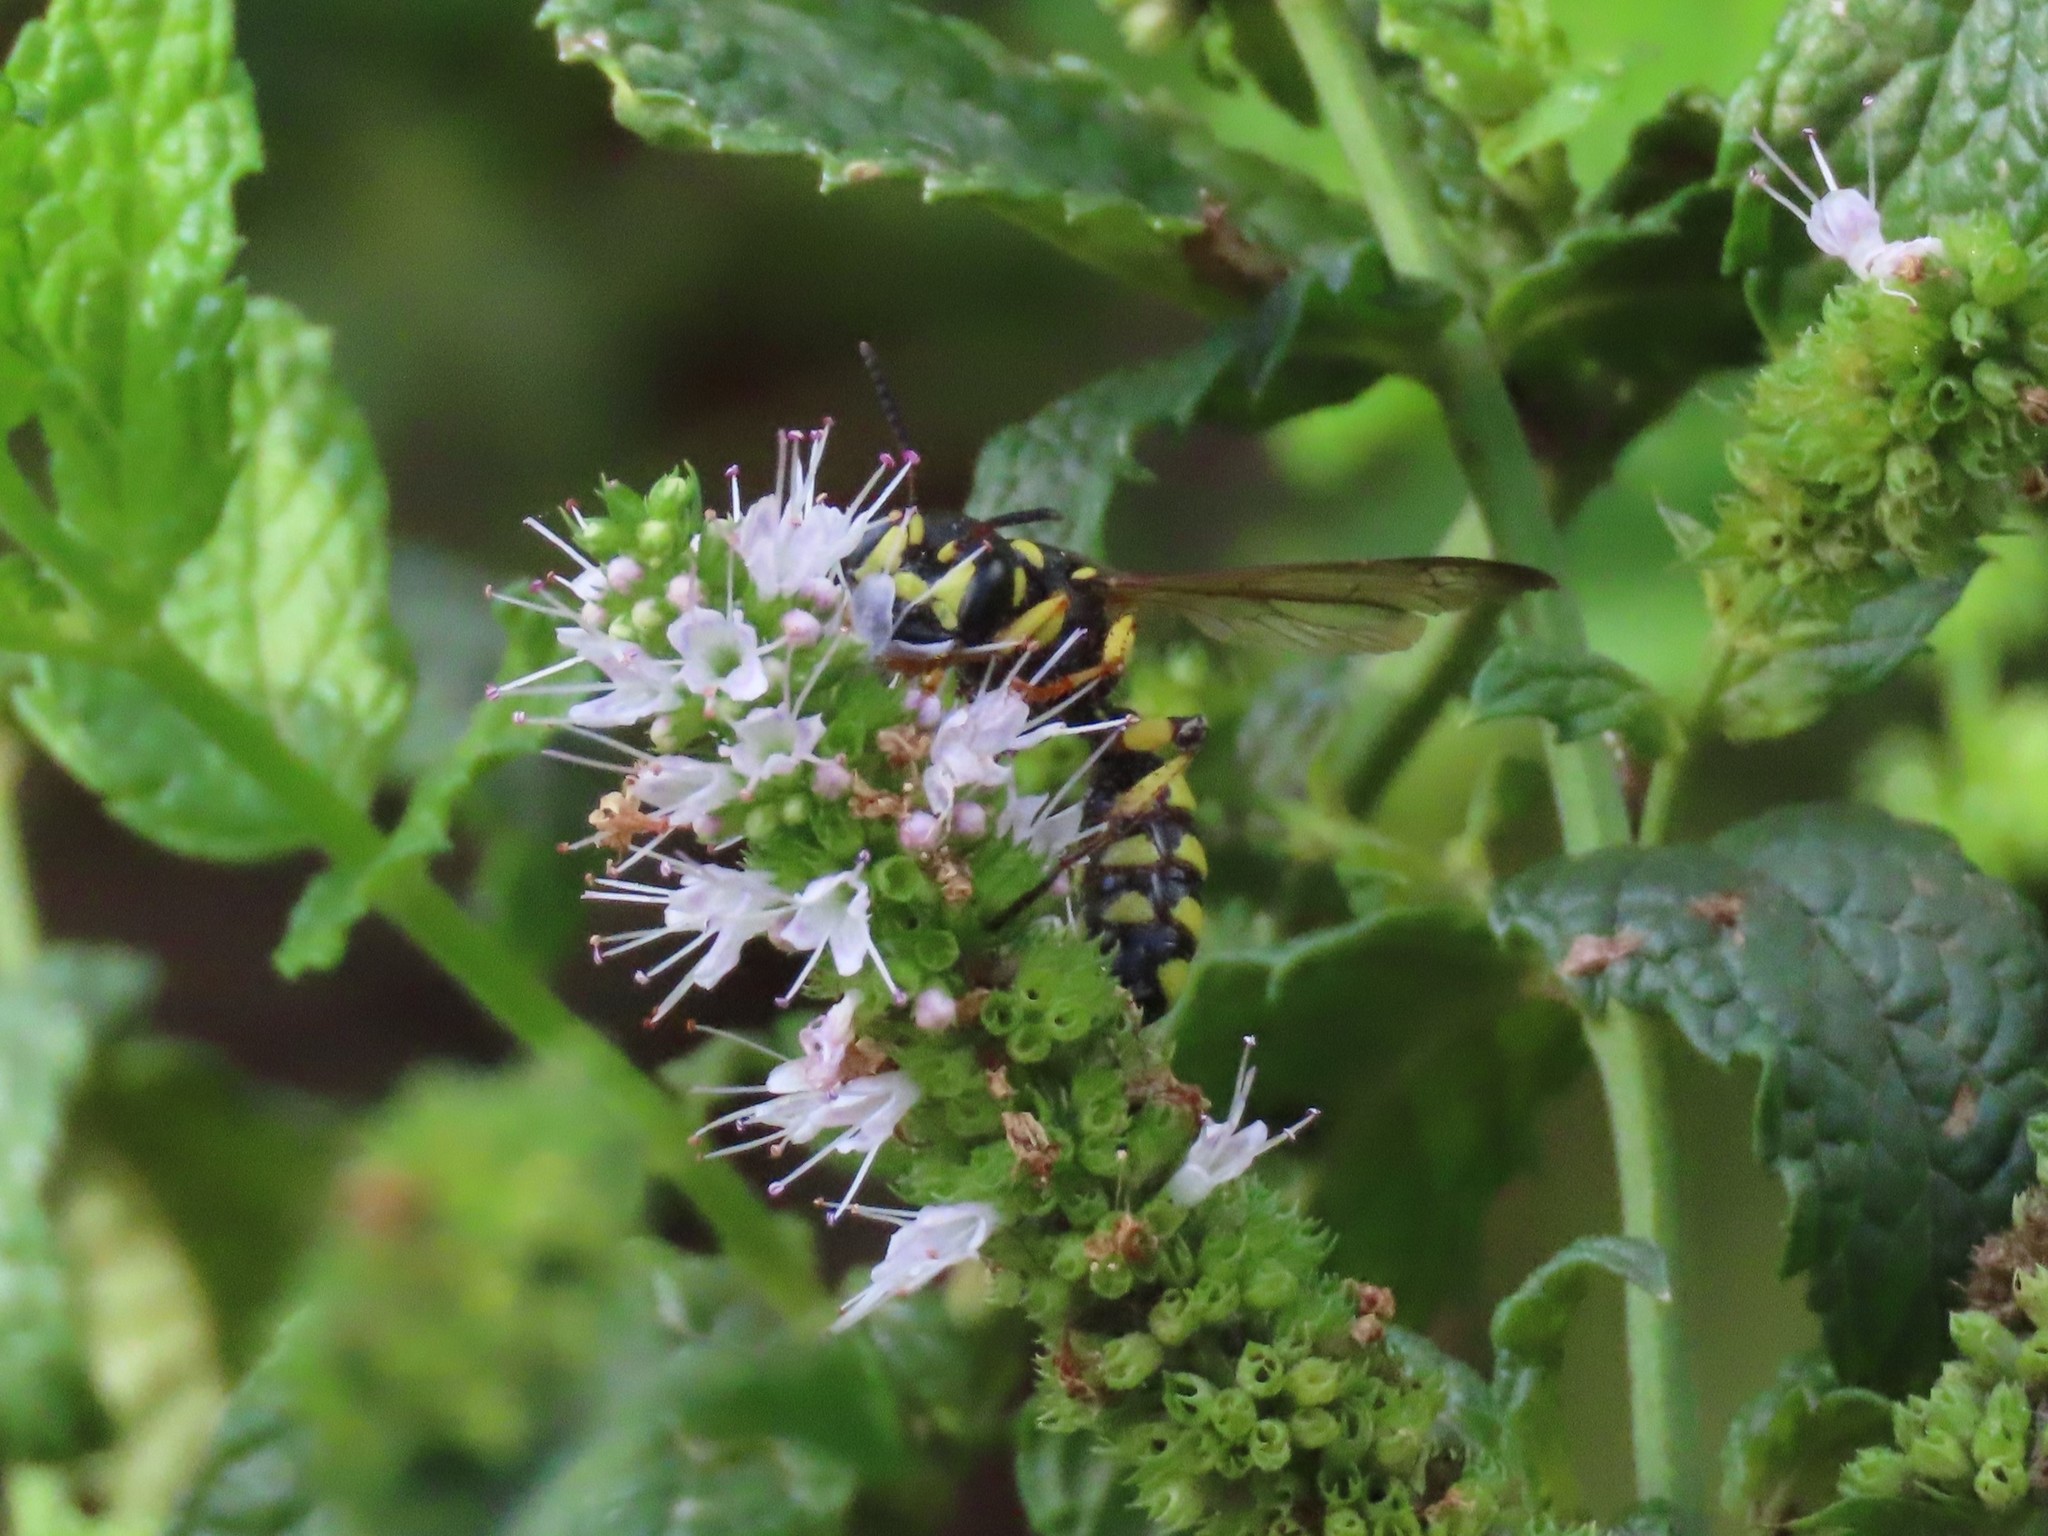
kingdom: Animalia
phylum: Arthropoda
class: Insecta
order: Hymenoptera
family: Crabronidae
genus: Cerceris
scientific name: Cerceris arenaria
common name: Sand tailed digger wasp
